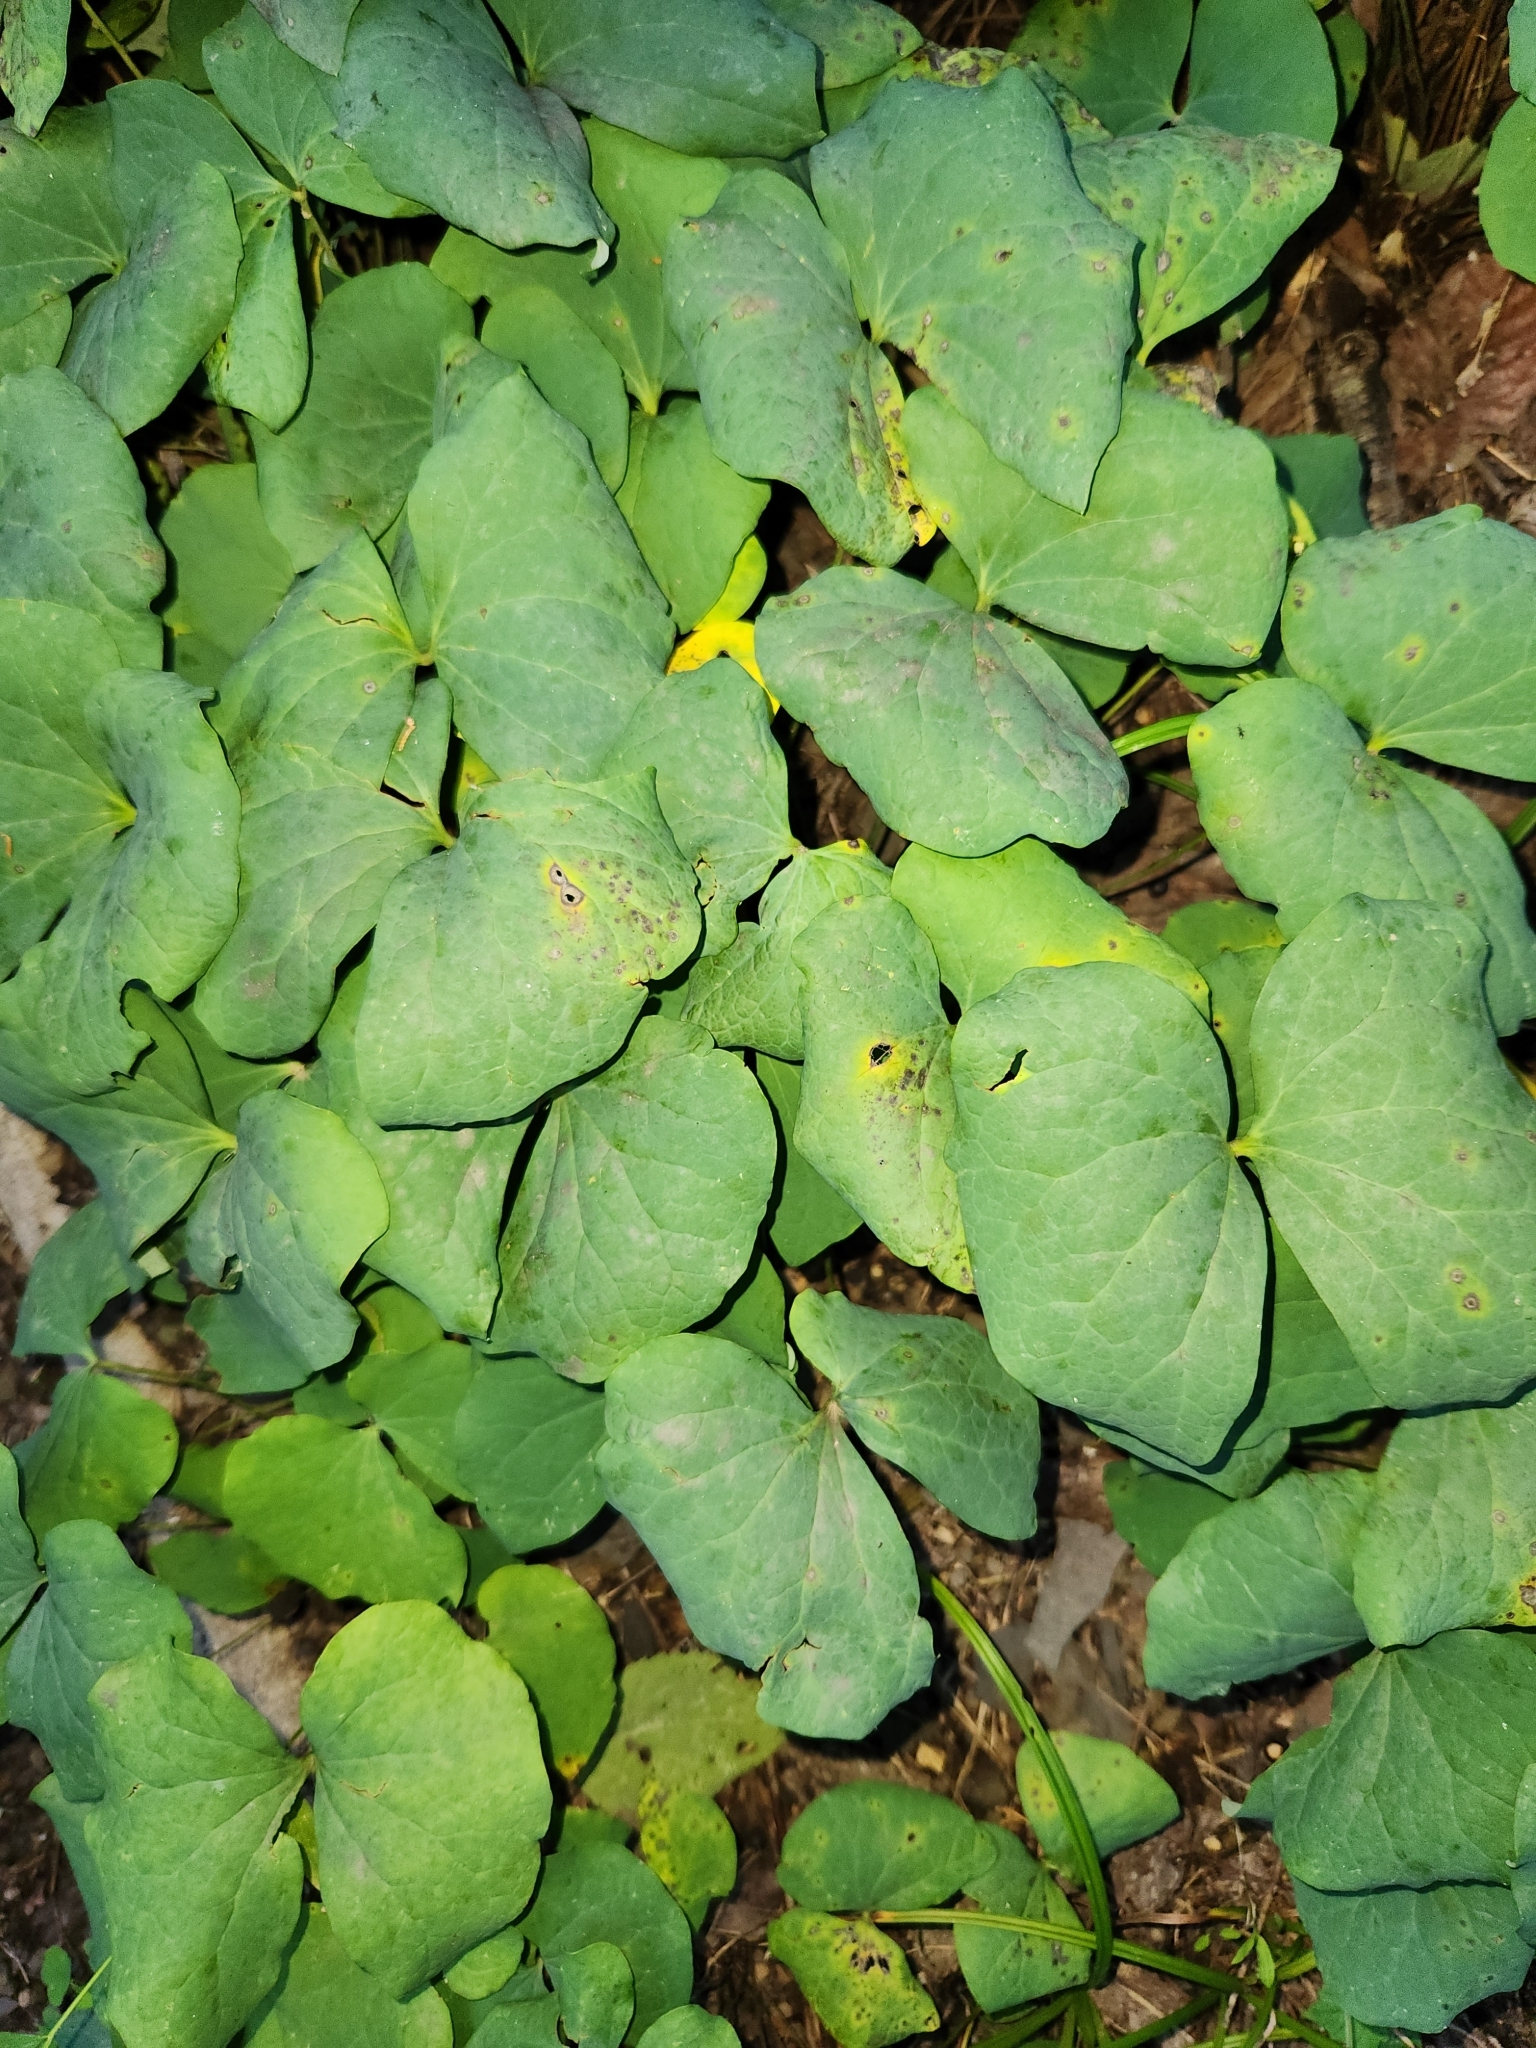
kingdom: Plantae
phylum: Tracheophyta
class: Magnoliopsida
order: Ranunculales
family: Berberidaceae
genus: Jeffersonia
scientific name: Jeffersonia diphylla
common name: Rheumatism-root
